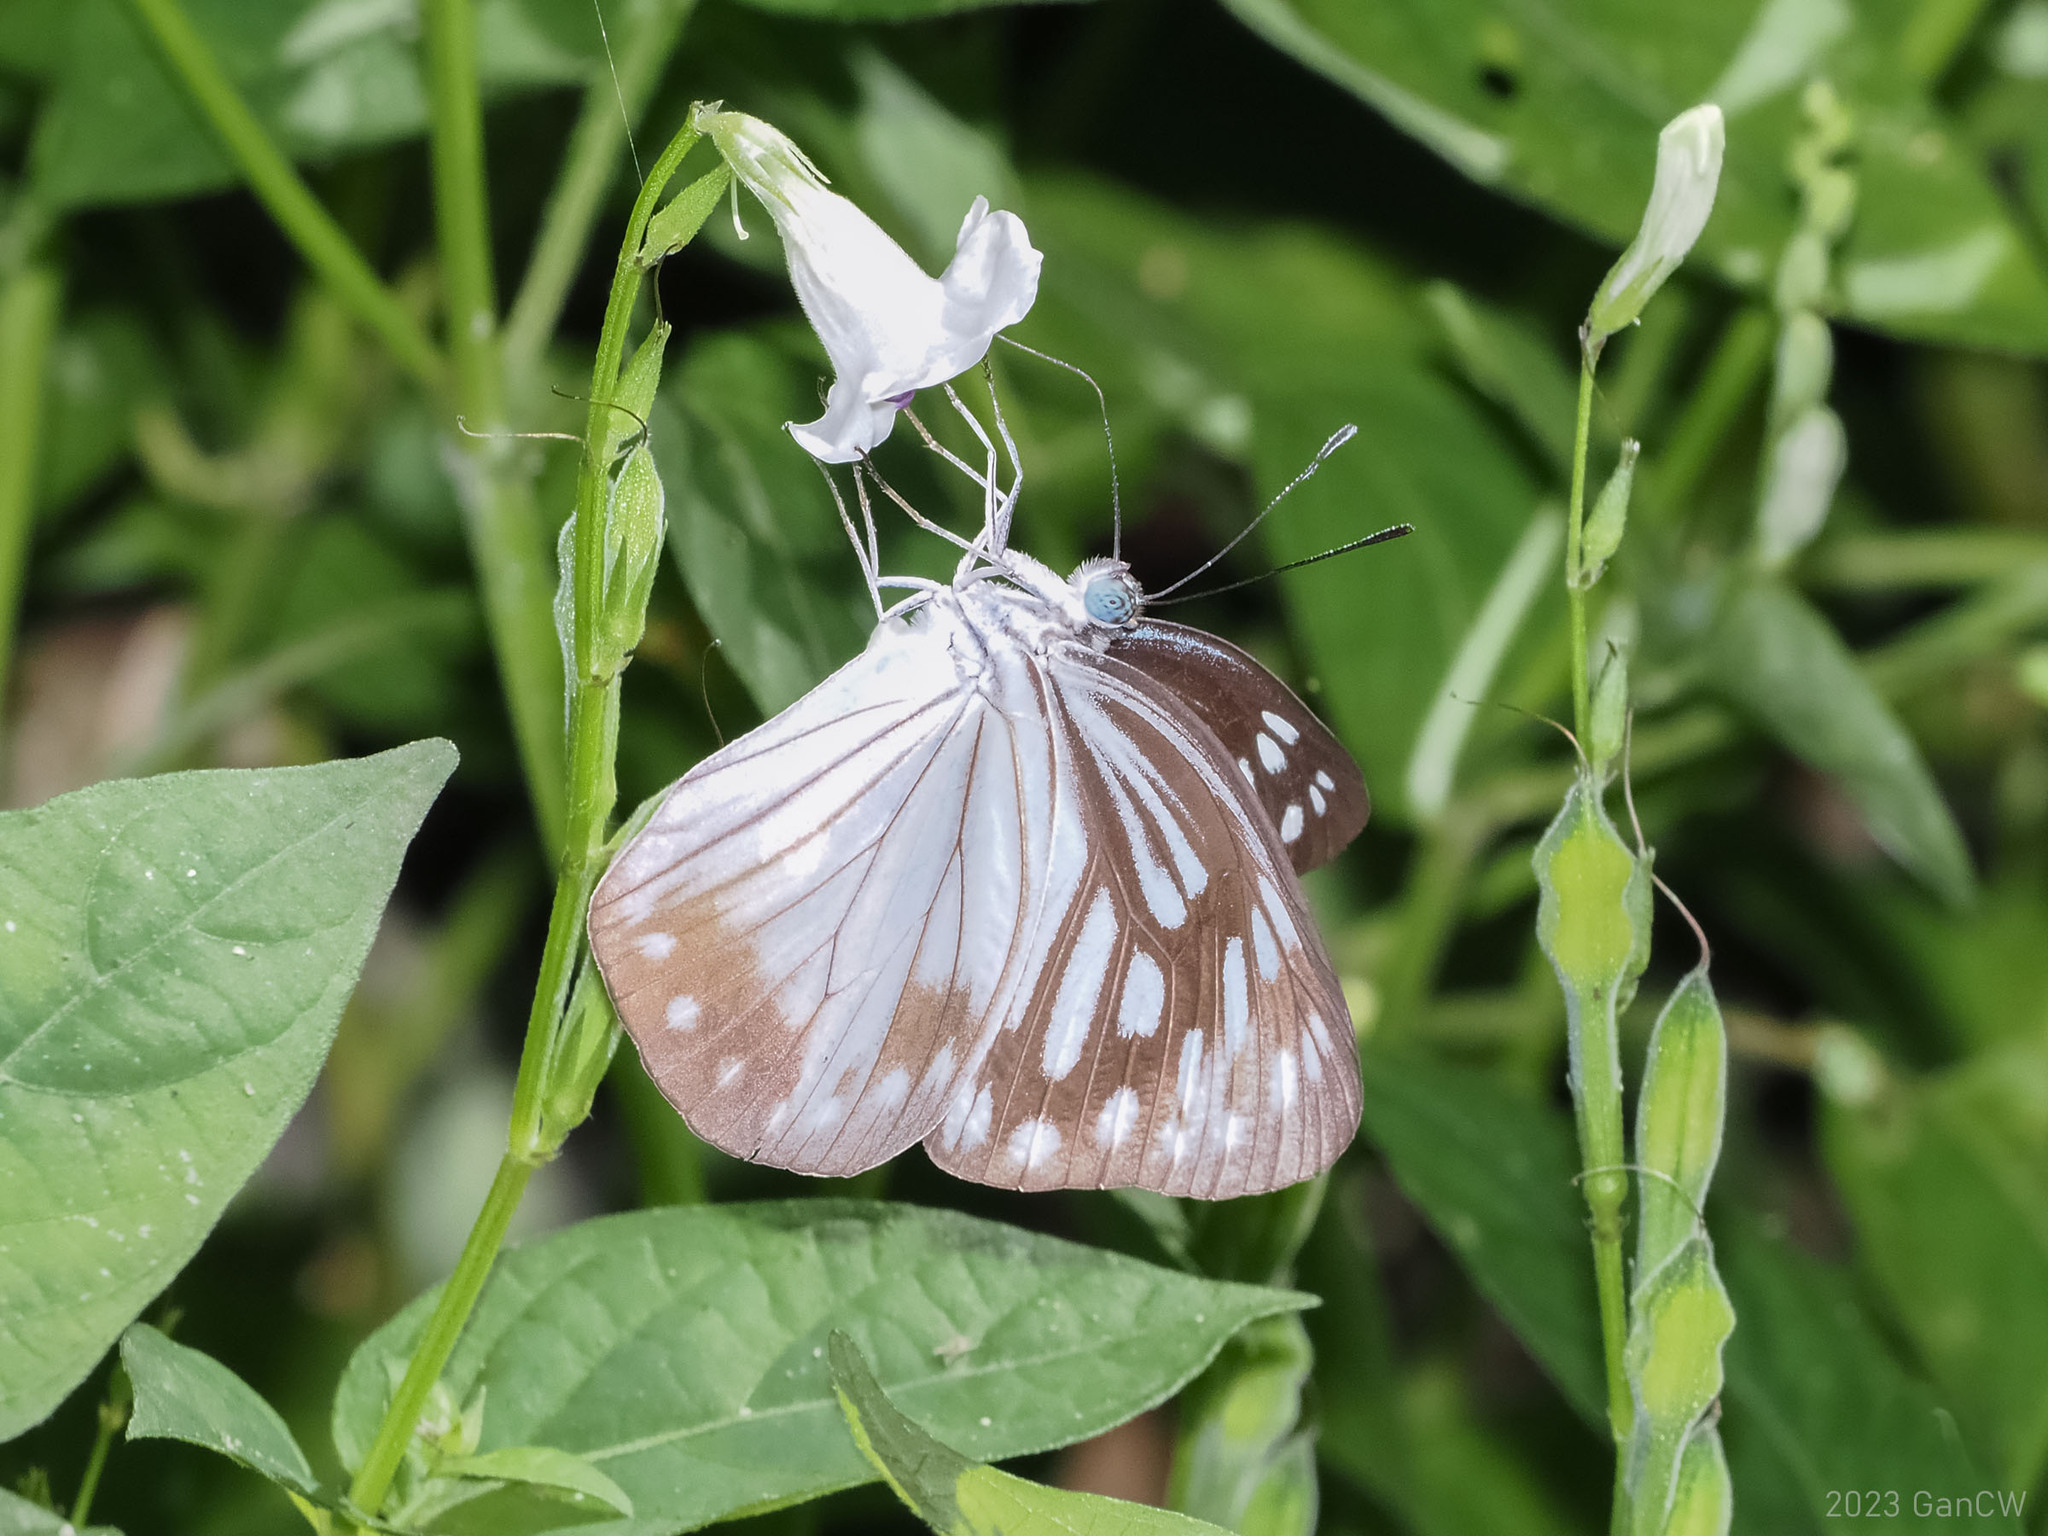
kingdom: Animalia
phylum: Arthropoda
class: Insecta
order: Lepidoptera
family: Pieridae
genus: Pareronia
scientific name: Pareronia boebera
